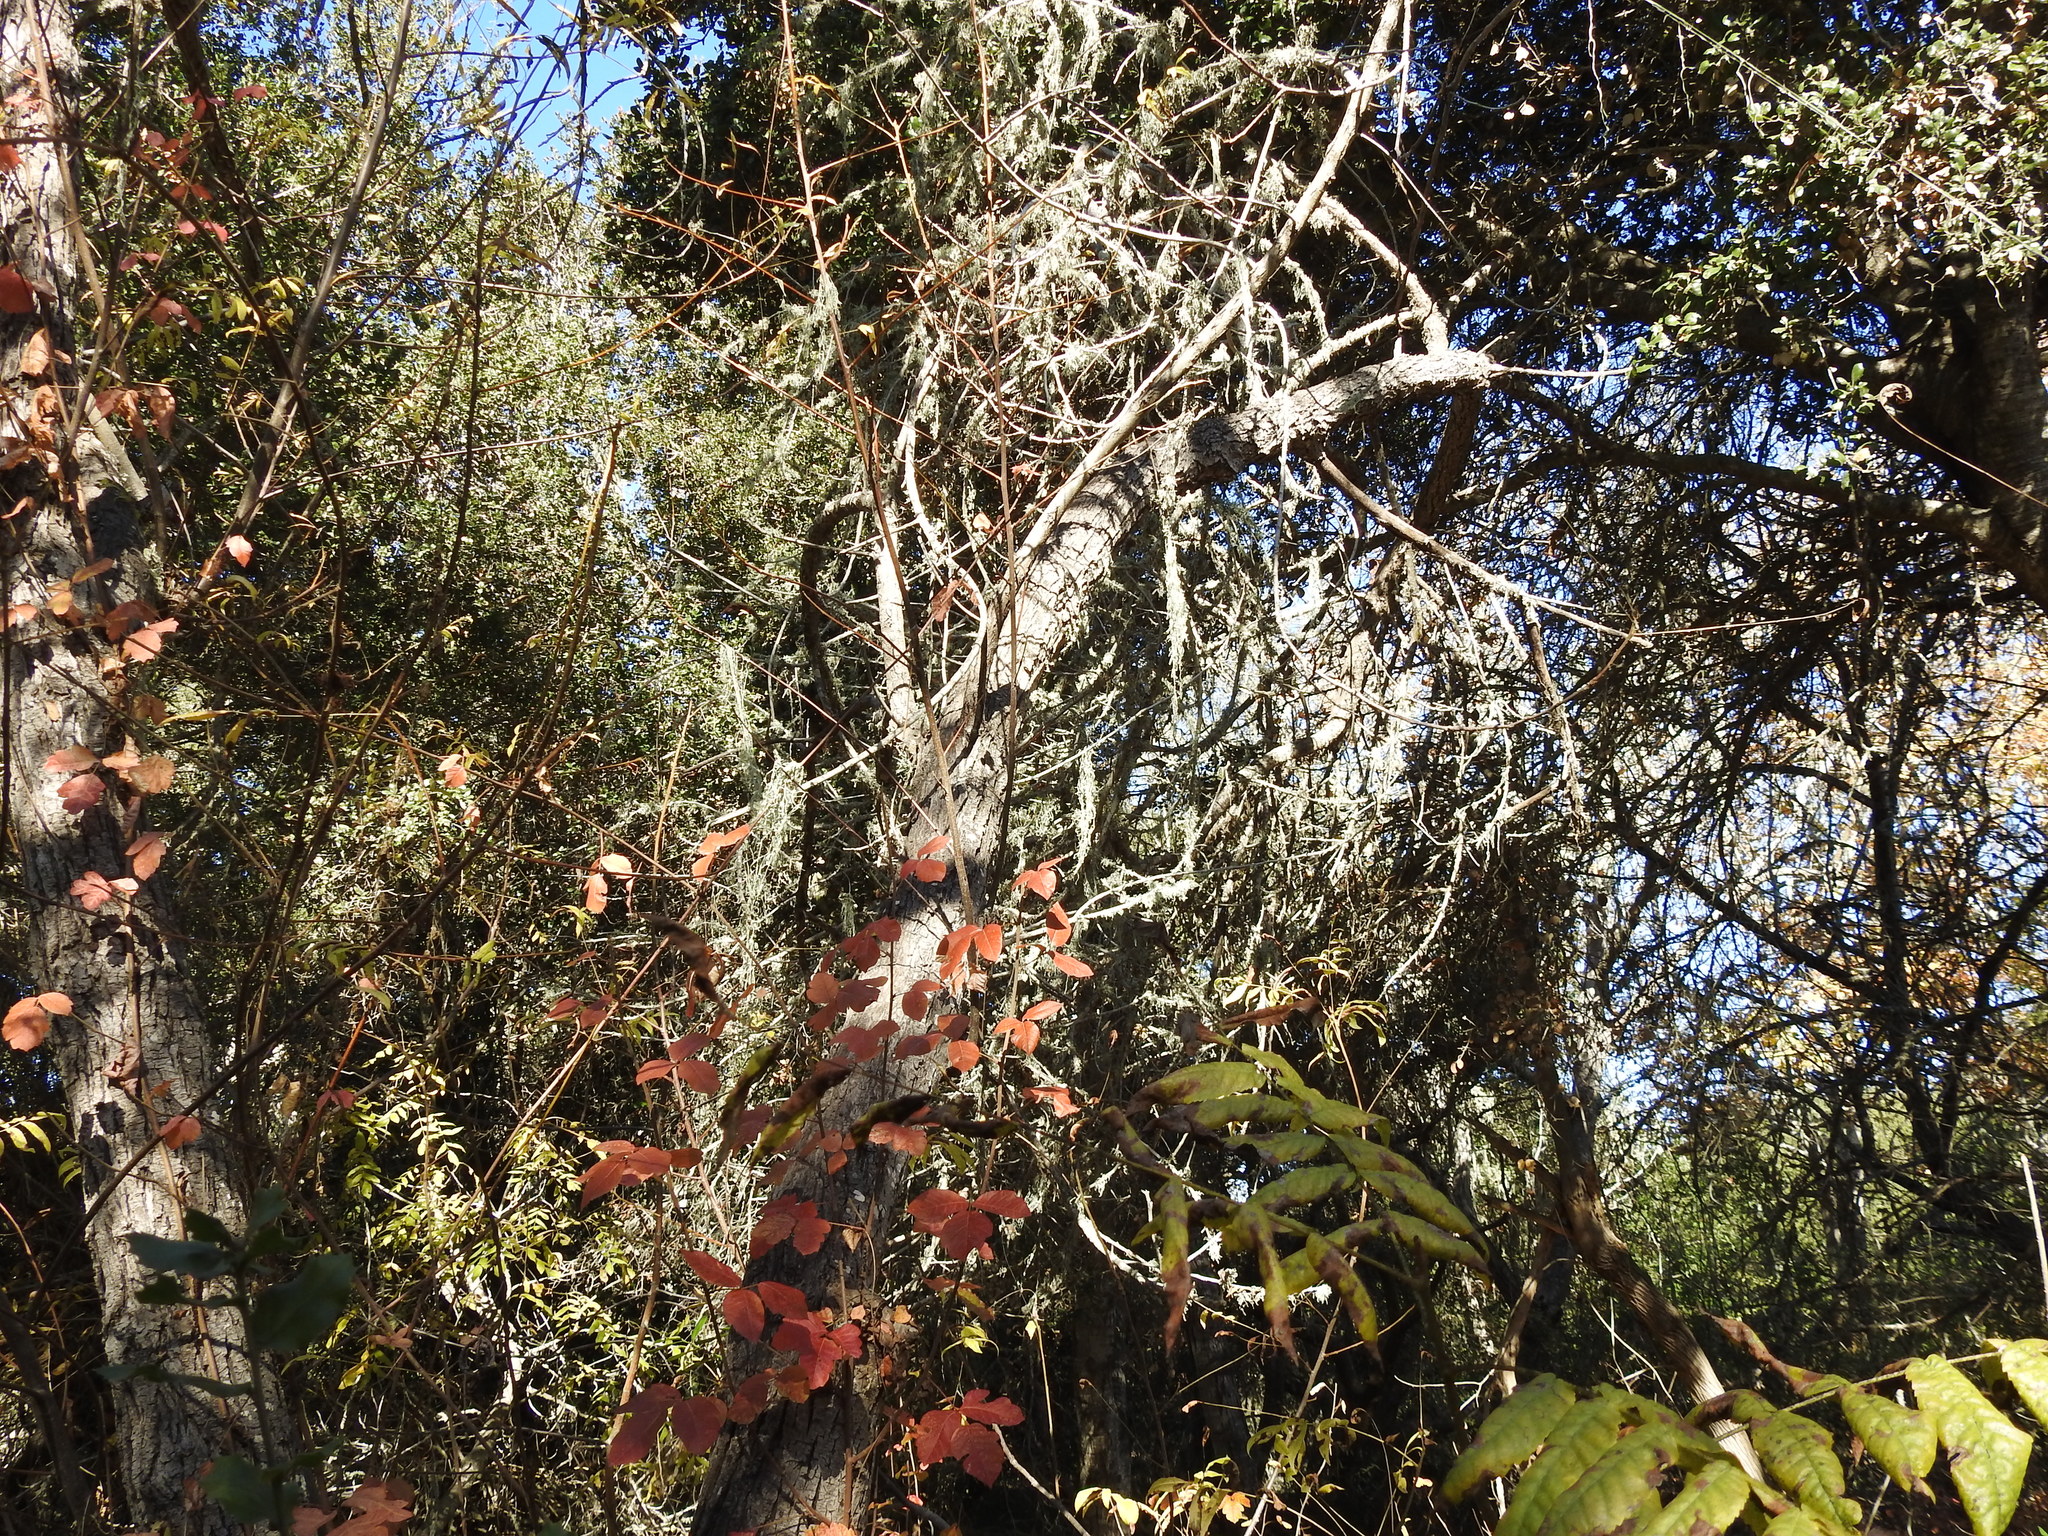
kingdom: Plantae
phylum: Tracheophyta
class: Magnoliopsida
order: Sapindales
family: Anacardiaceae
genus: Toxicodendron
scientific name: Toxicodendron diversilobum
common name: Pacific poison-oak
